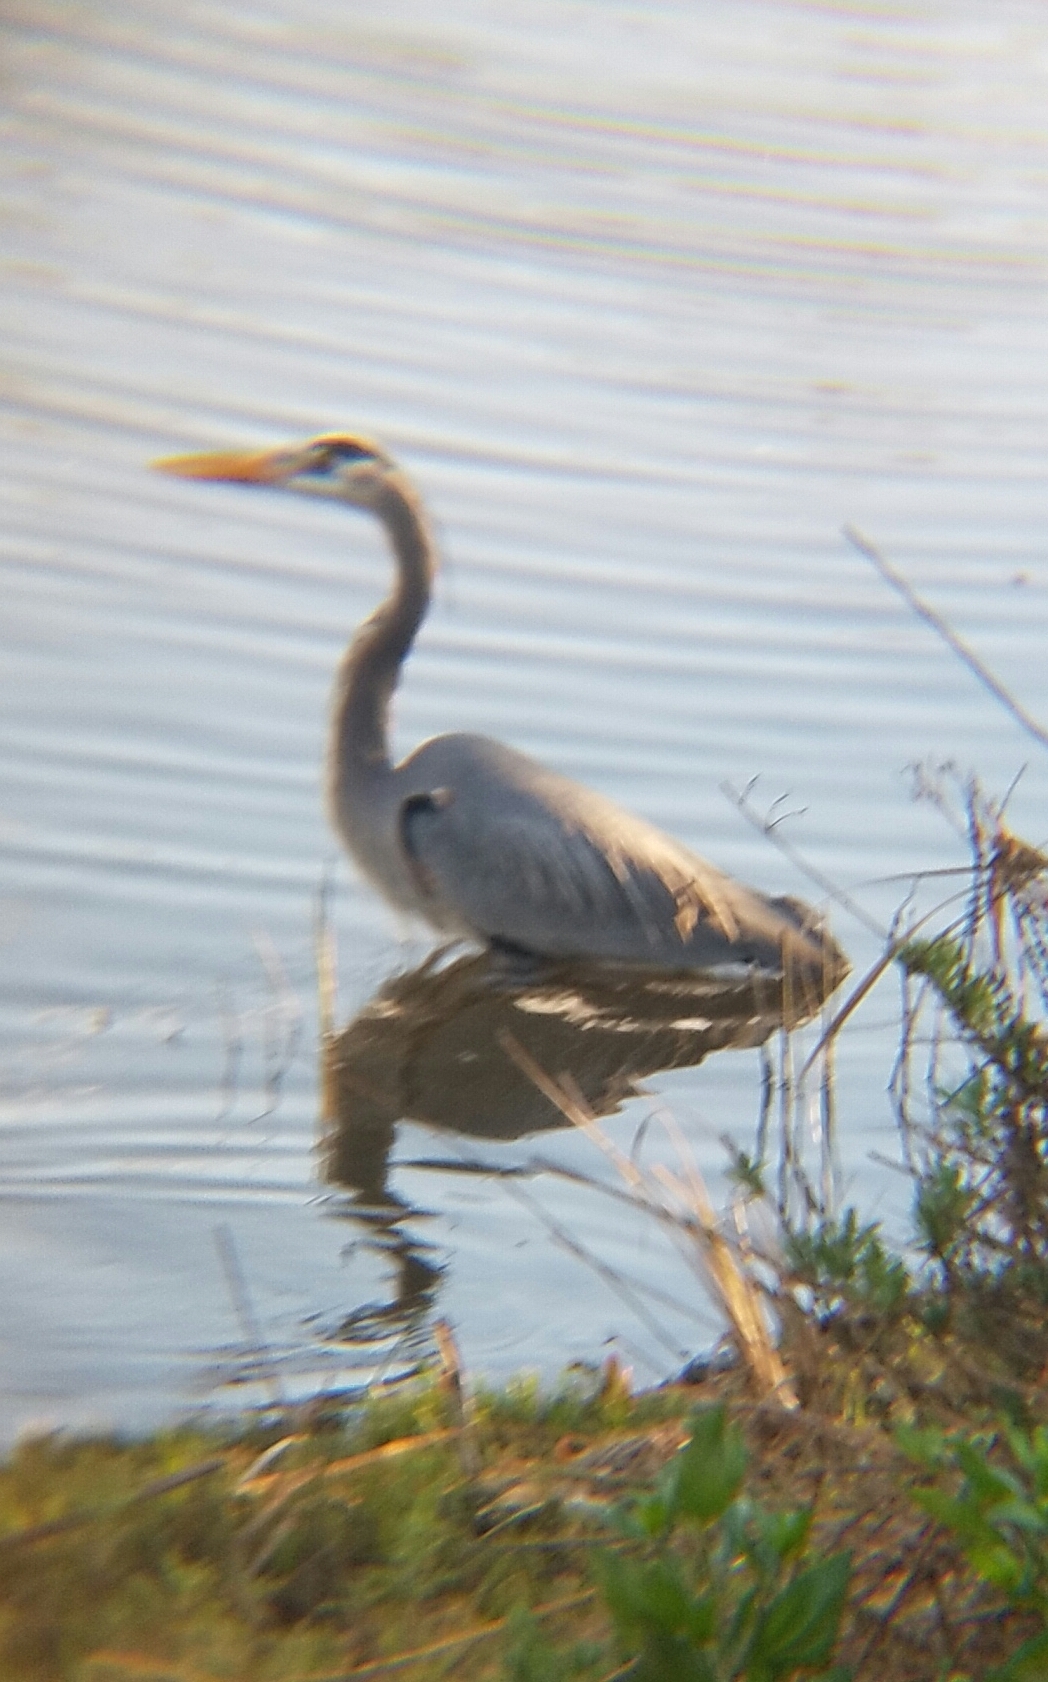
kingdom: Animalia
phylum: Chordata
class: Aves
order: Pelecaniformes
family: Ardeidae
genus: Ardea
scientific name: Ardea herodias
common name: Great blue heron
